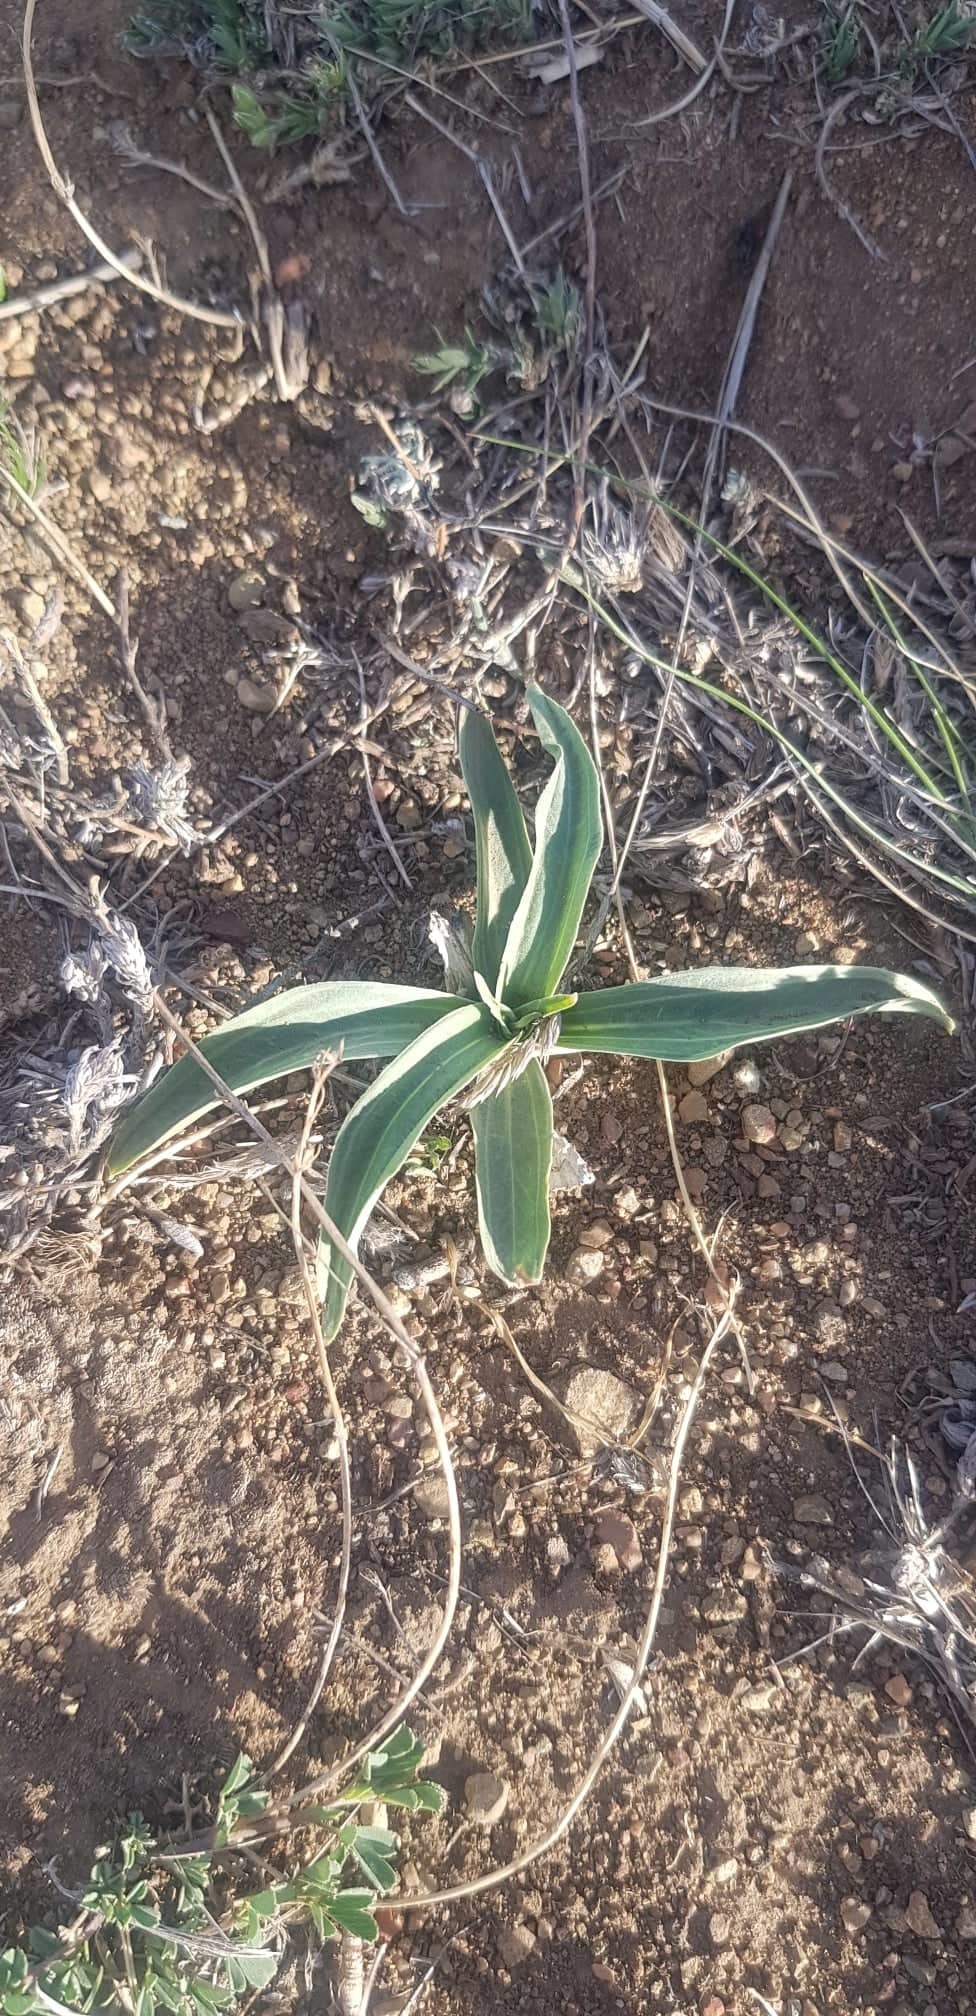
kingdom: Plantae
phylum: Tracheophyta
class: Magnoliopsida
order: Asterales
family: Asteraceae
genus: Takhtajaniantha
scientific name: Takhtajaniantha capito
